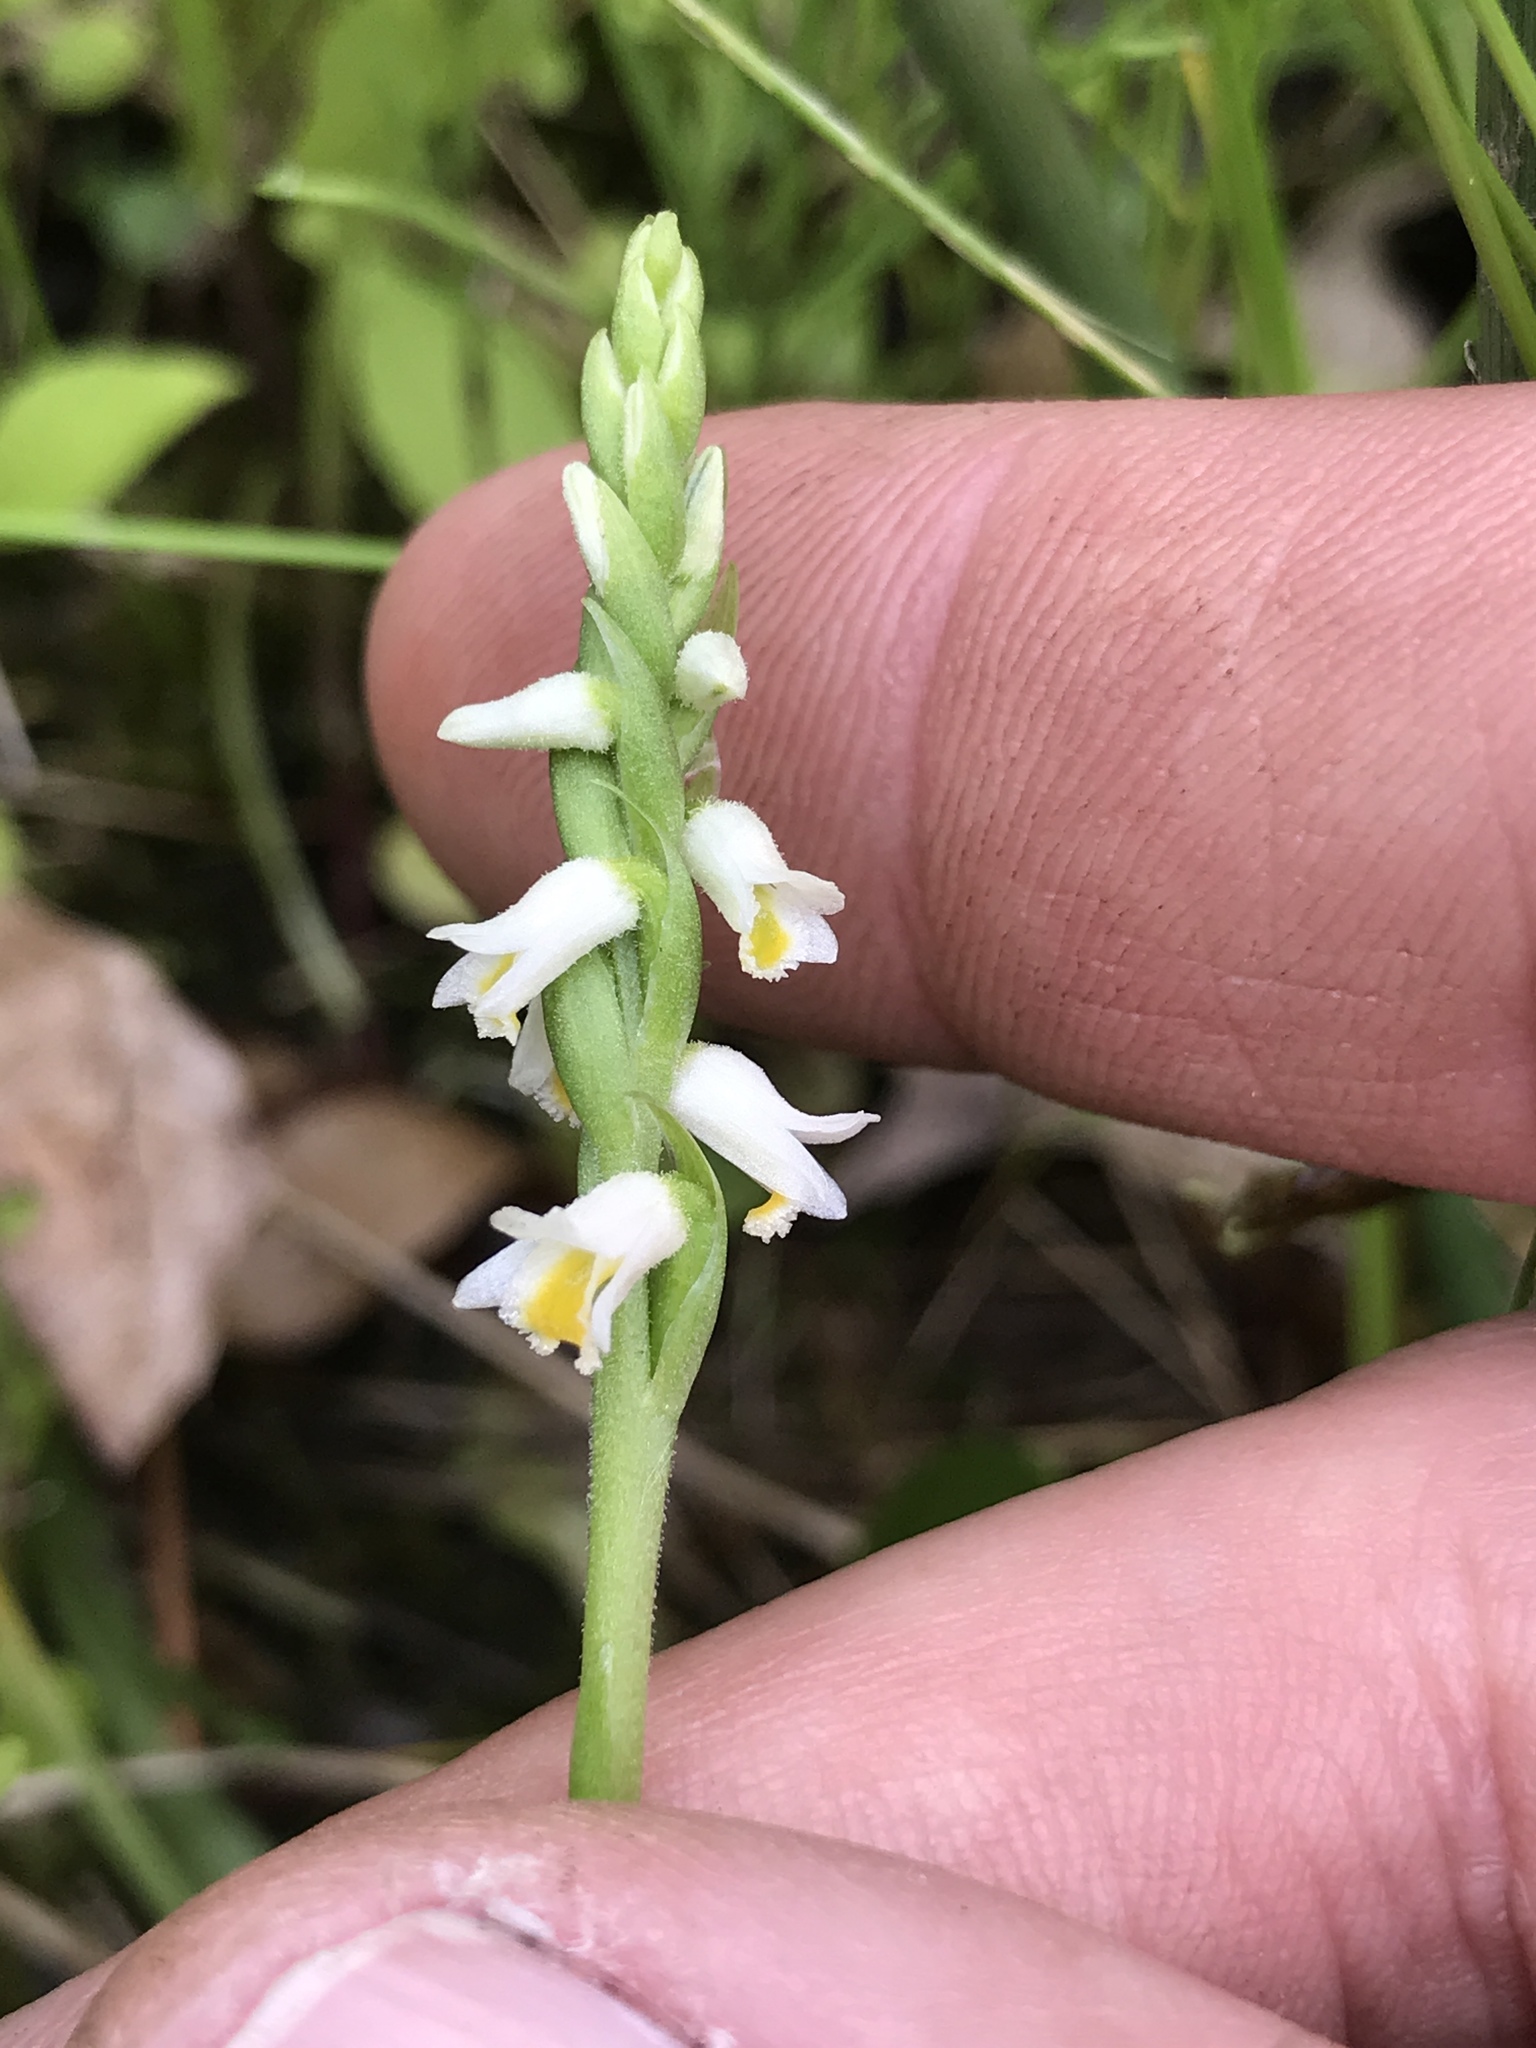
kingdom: Plantae
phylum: Tracheophyta
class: Liliopsida
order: Asparagales
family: Orchidaceae
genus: Spiranthes
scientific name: Spiranthes lucida
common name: Broad-leaved ladies'-tresses
